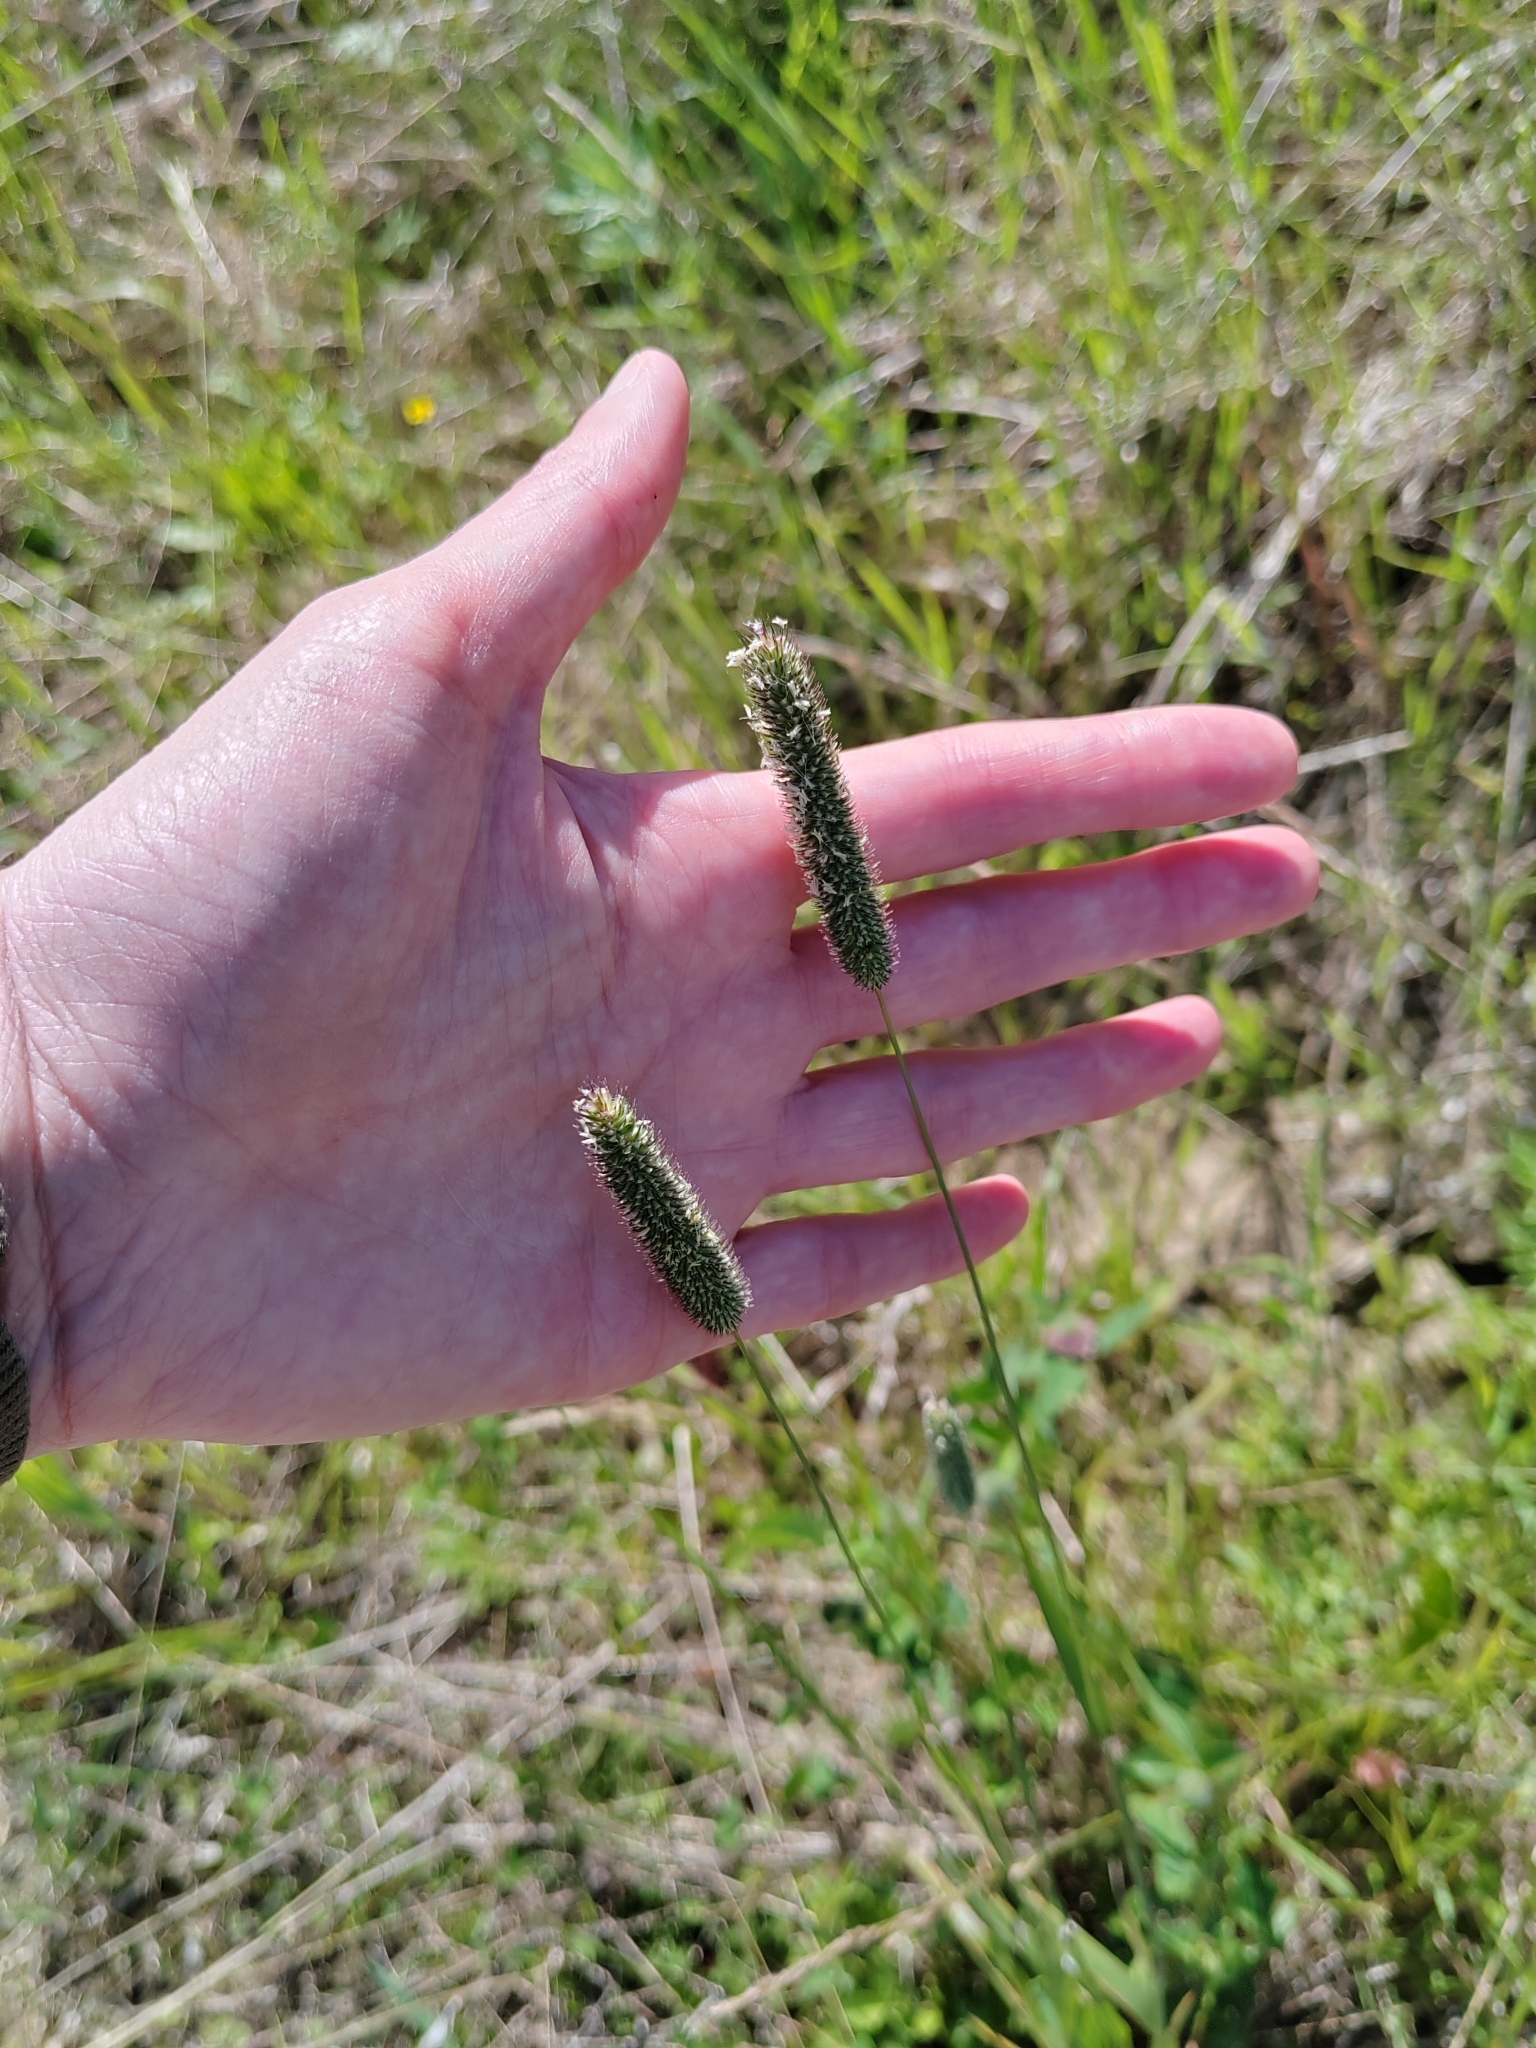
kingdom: Plantae
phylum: Tracheophyta
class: Liliopsida
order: Poales
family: Poaceae
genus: Phleum
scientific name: Phleum pratense
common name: Timothy grass
